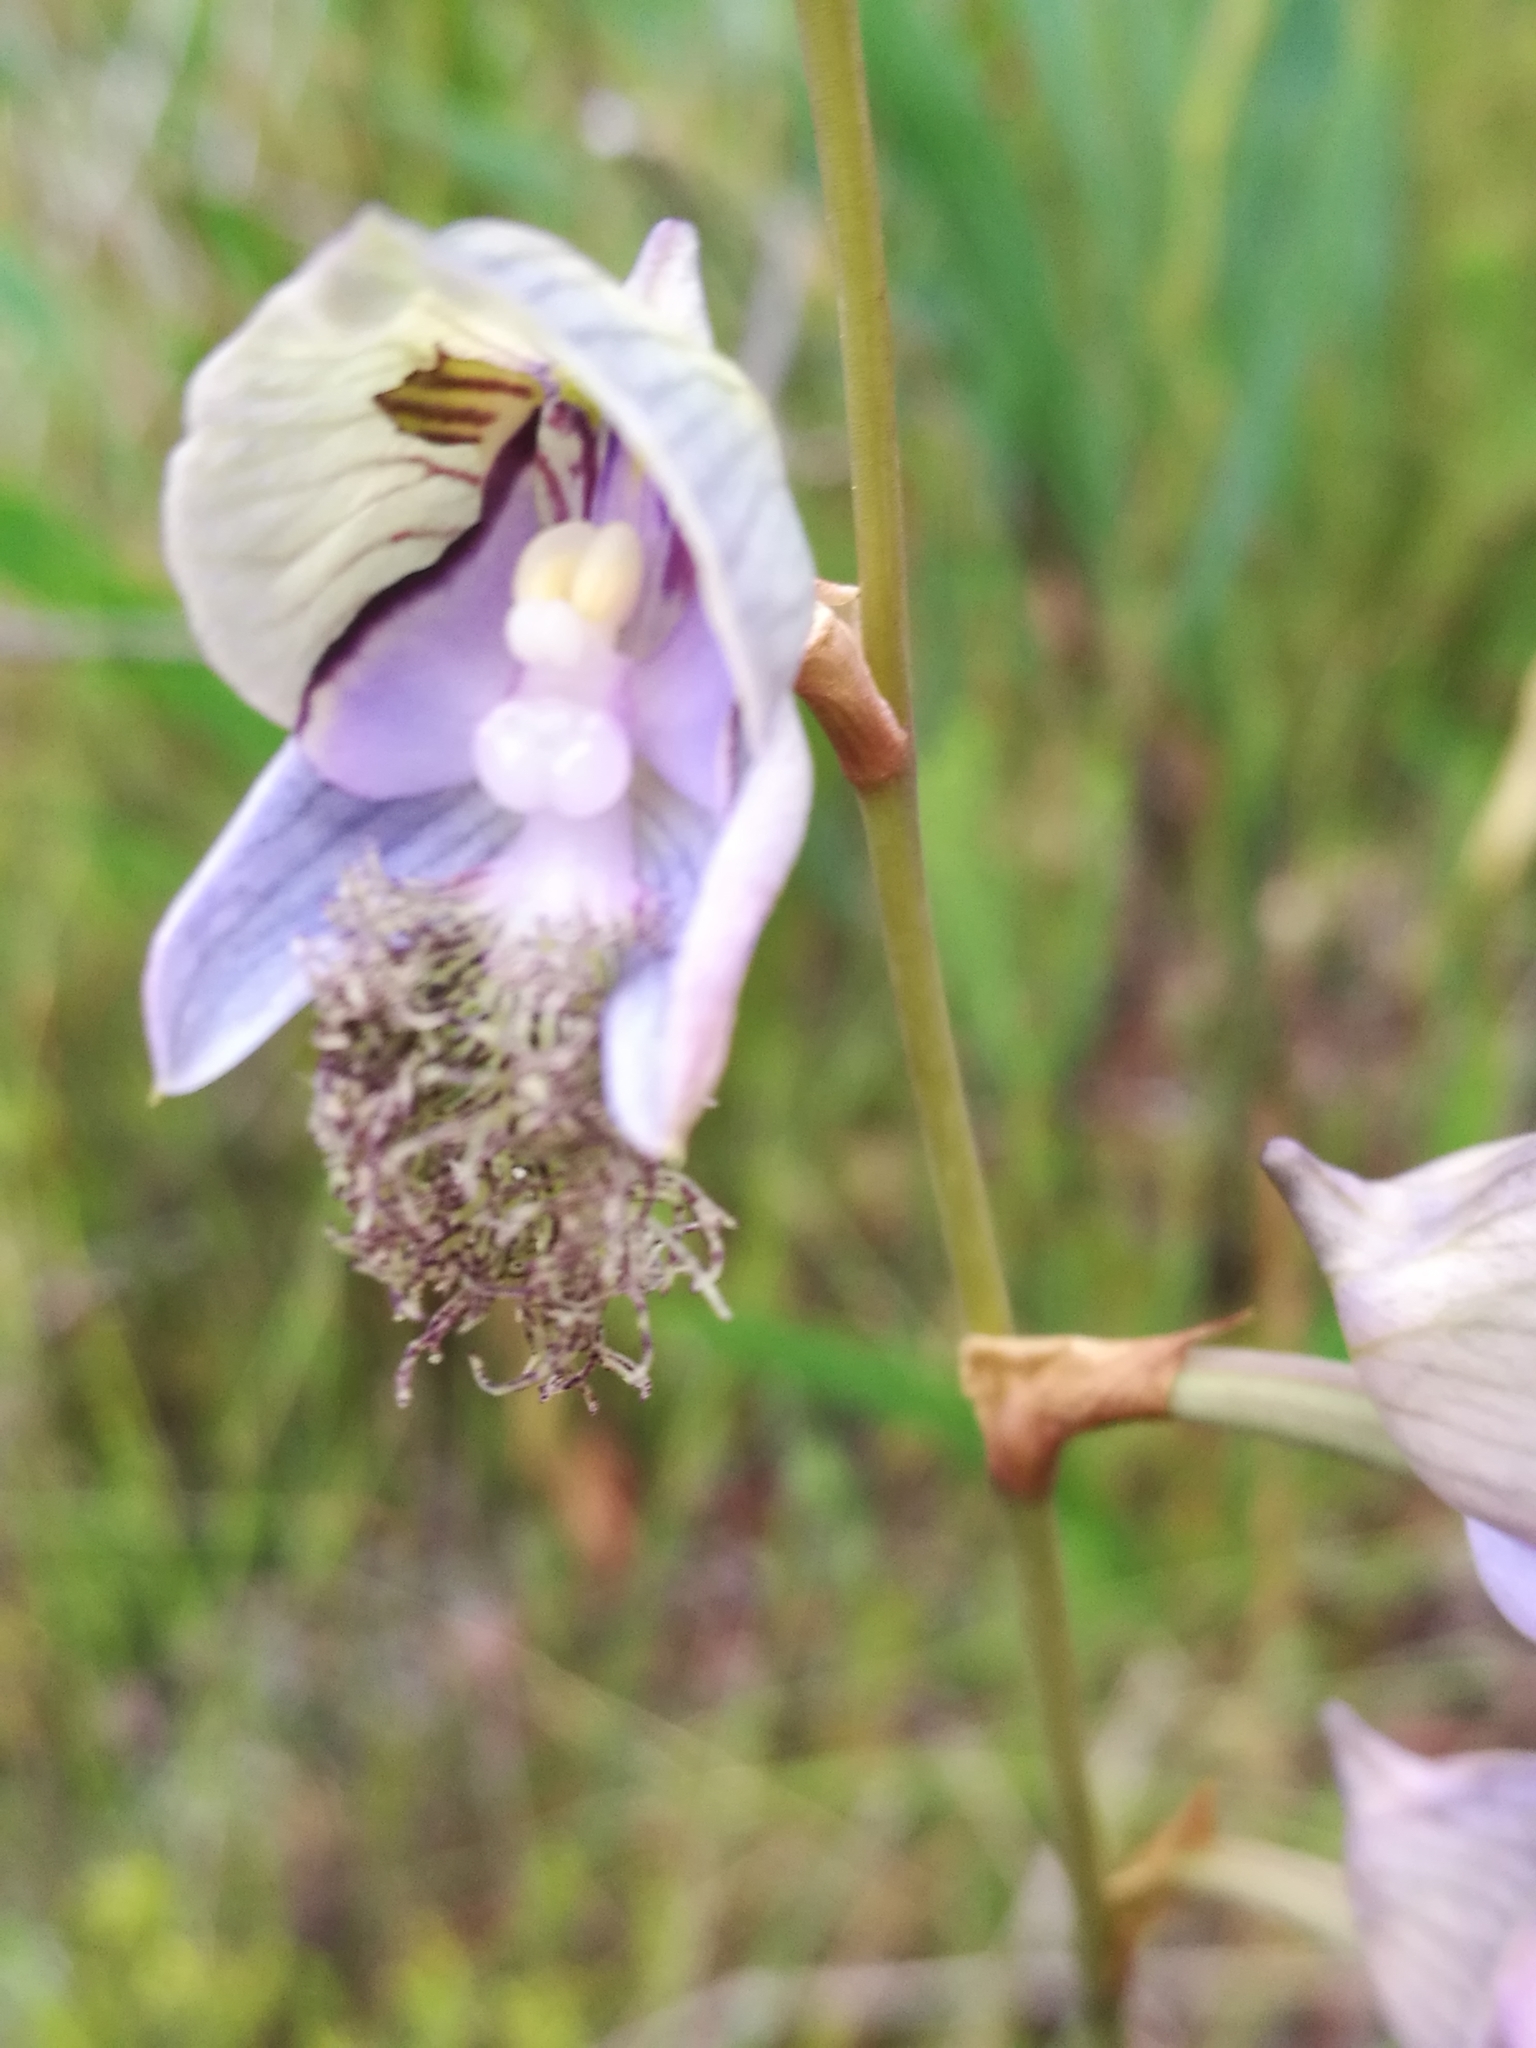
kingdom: Plantae
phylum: Tracheophyta
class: Liliopsida
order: Asparagales
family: Orchidaceae
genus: Disa
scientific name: Disa lugens
